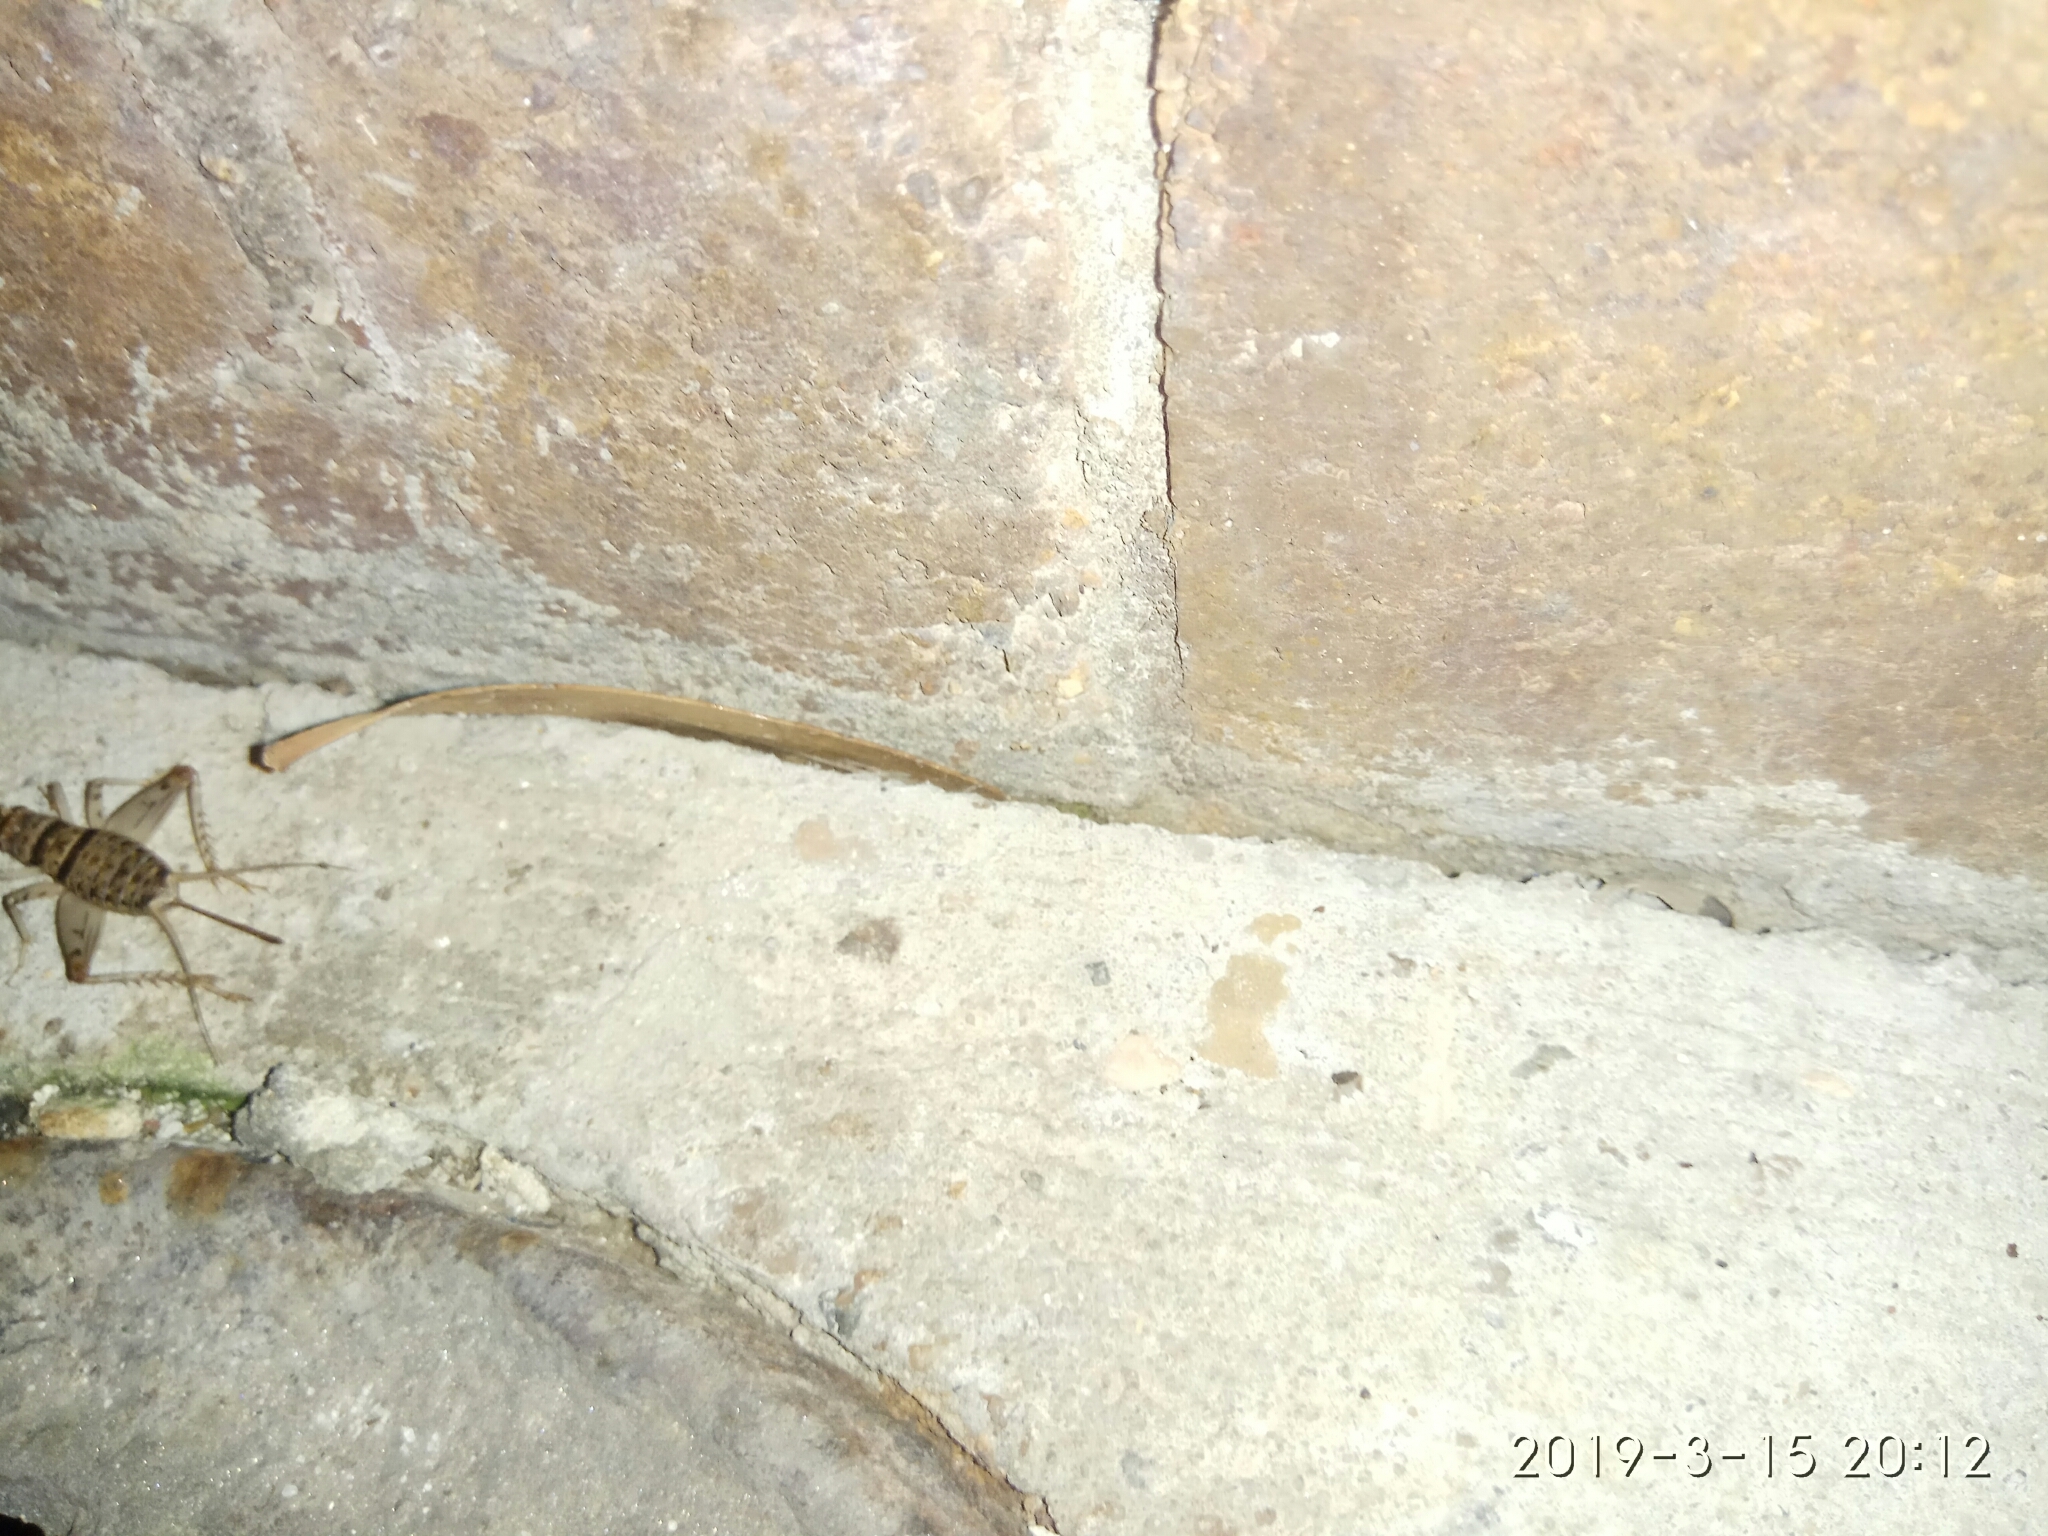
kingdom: Animalia
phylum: Arthropoda
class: Insecta
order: Orthoptera
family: Gryllidae
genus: Gryllodes
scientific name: Gryllodes sigillatus
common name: Tropical house cricket
